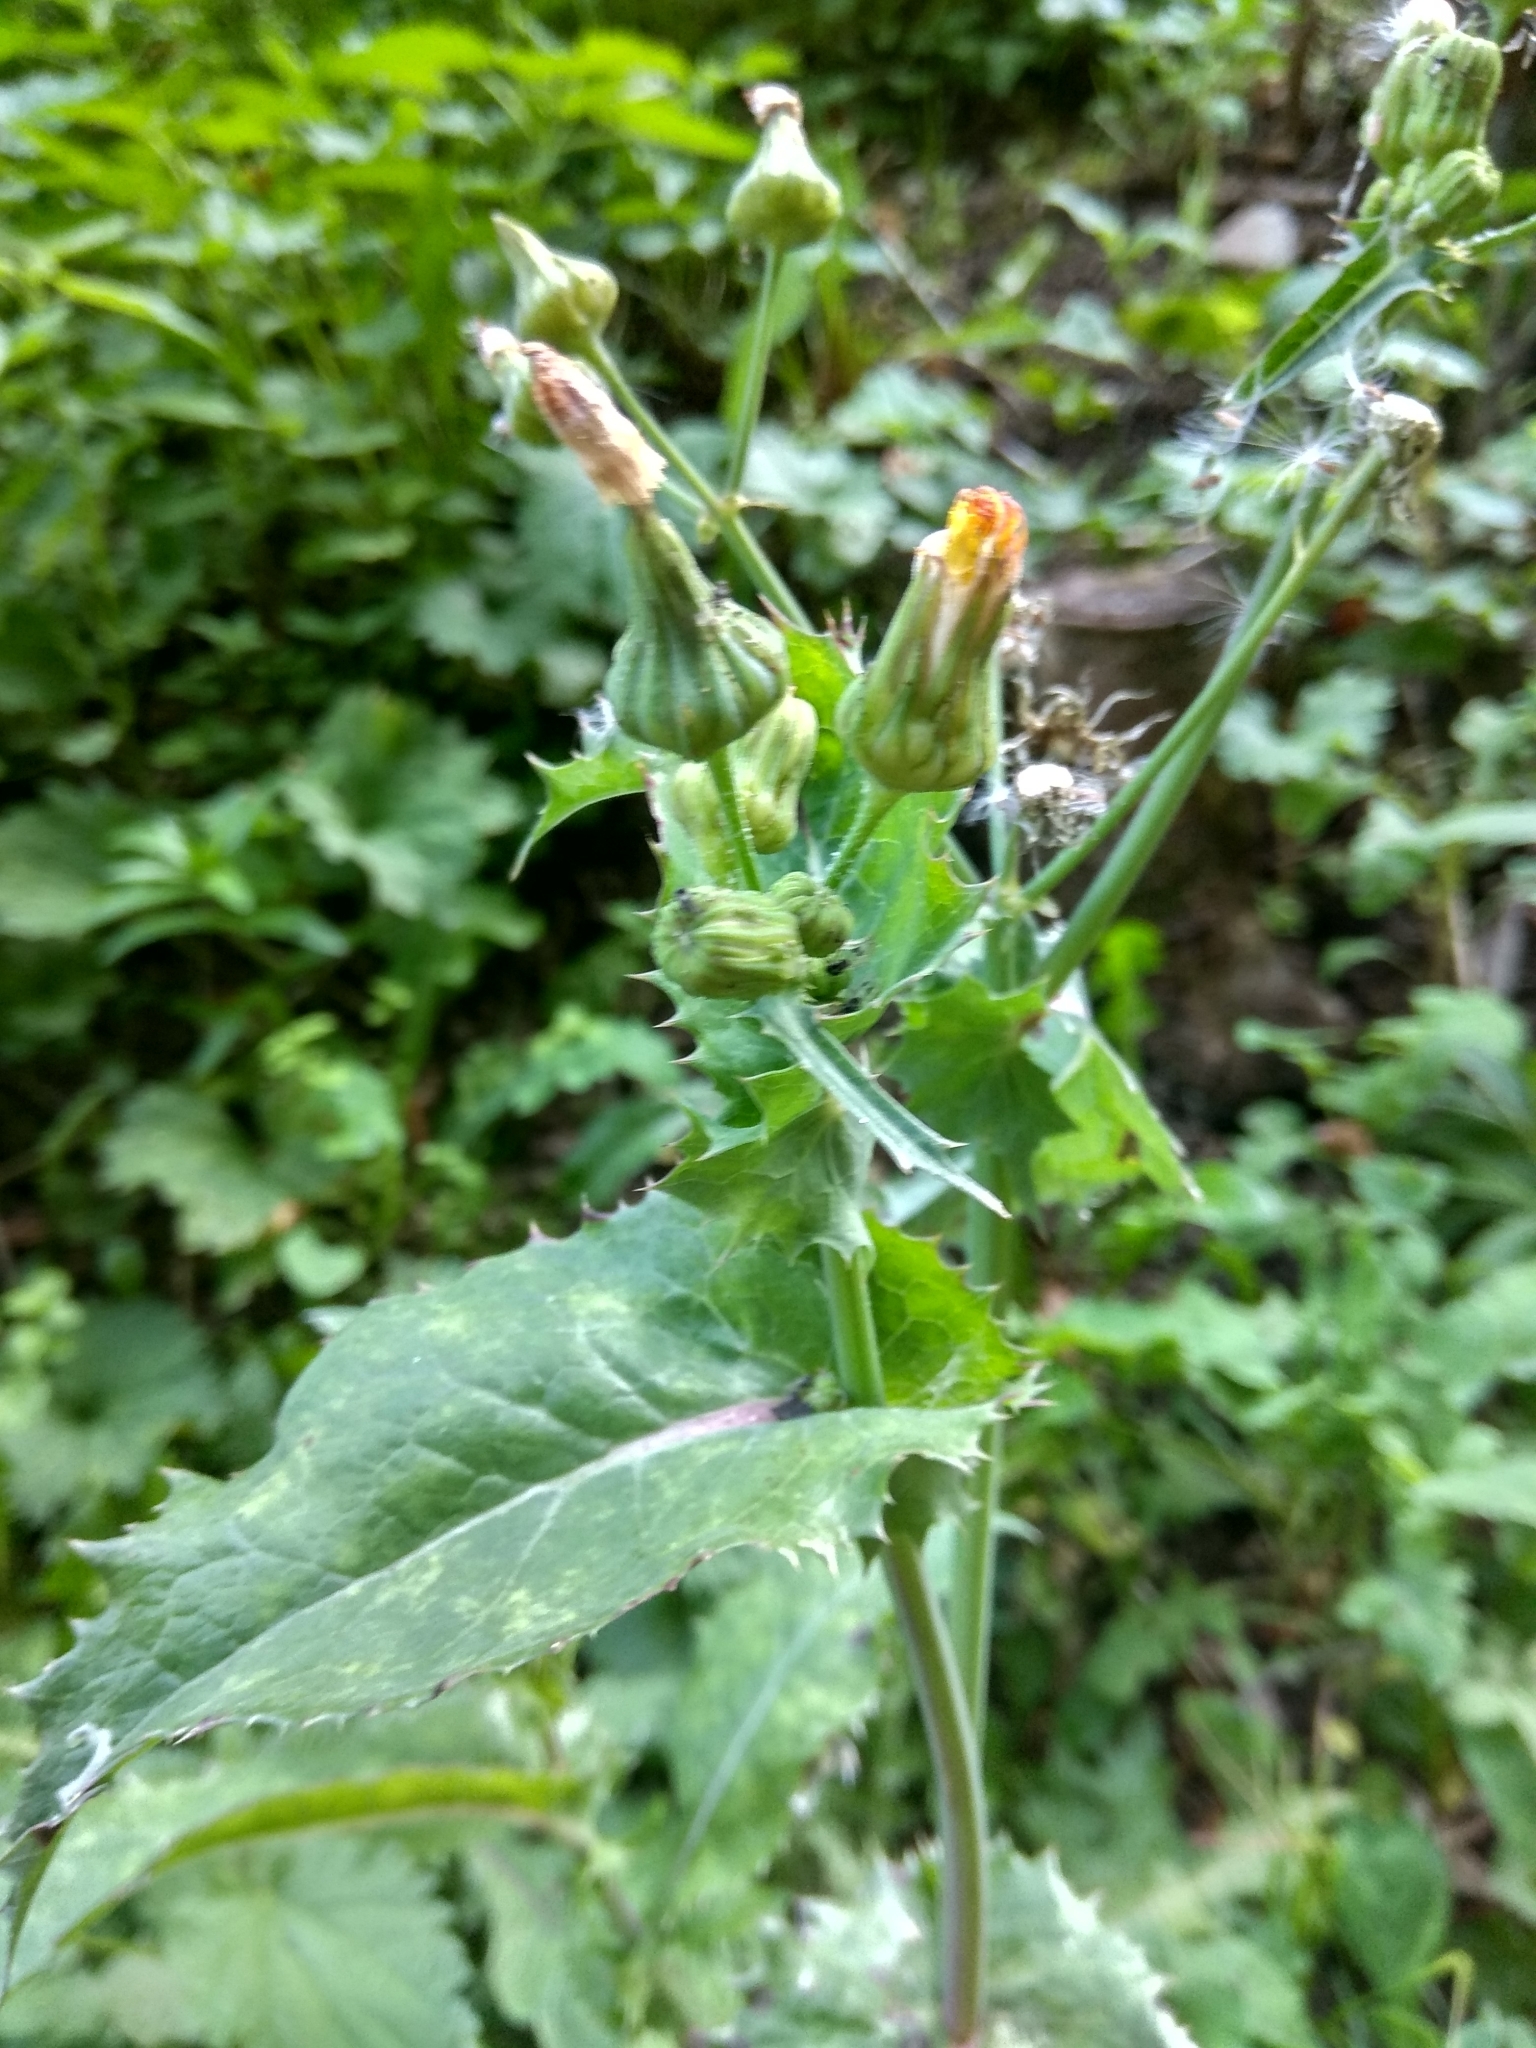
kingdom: Plantae
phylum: Tracheophyta
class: Magnoliopsida
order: Asterales
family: Asteraceae
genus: Sonchus
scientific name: Sonchus asper
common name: Prickly sow-thistle
